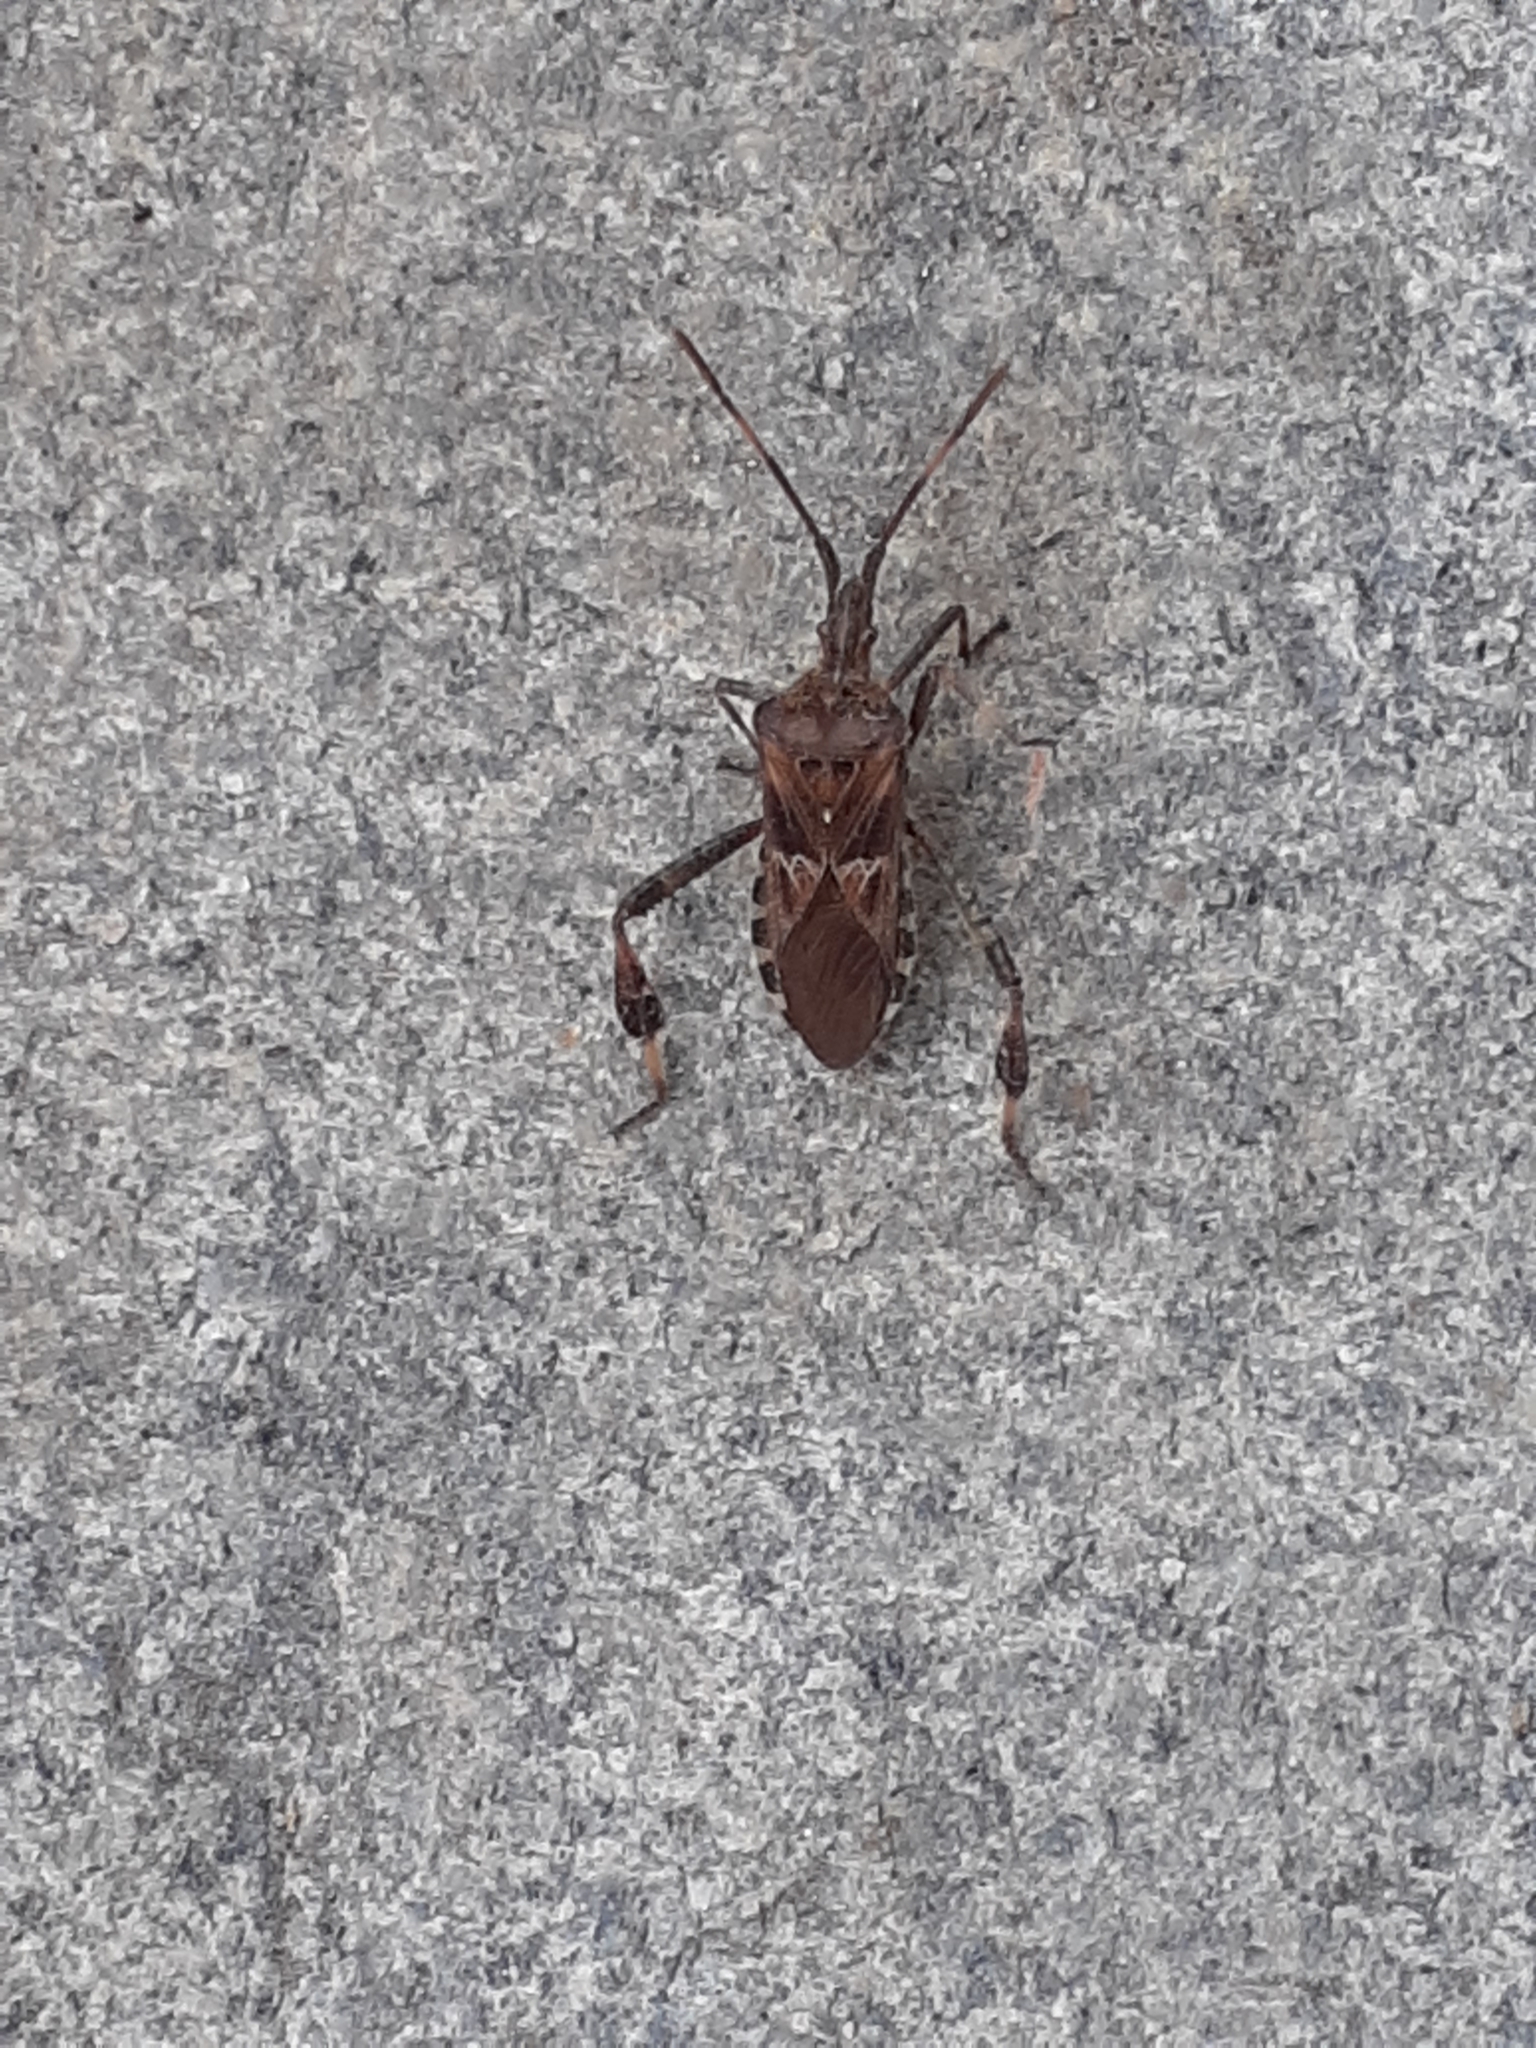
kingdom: Animalia
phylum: Arthropoda
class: Insecta
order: Hemiptera
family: Coreidae
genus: Leptoglossus
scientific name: Leptoglossus occidentalis
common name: Western conifer-seed bug
